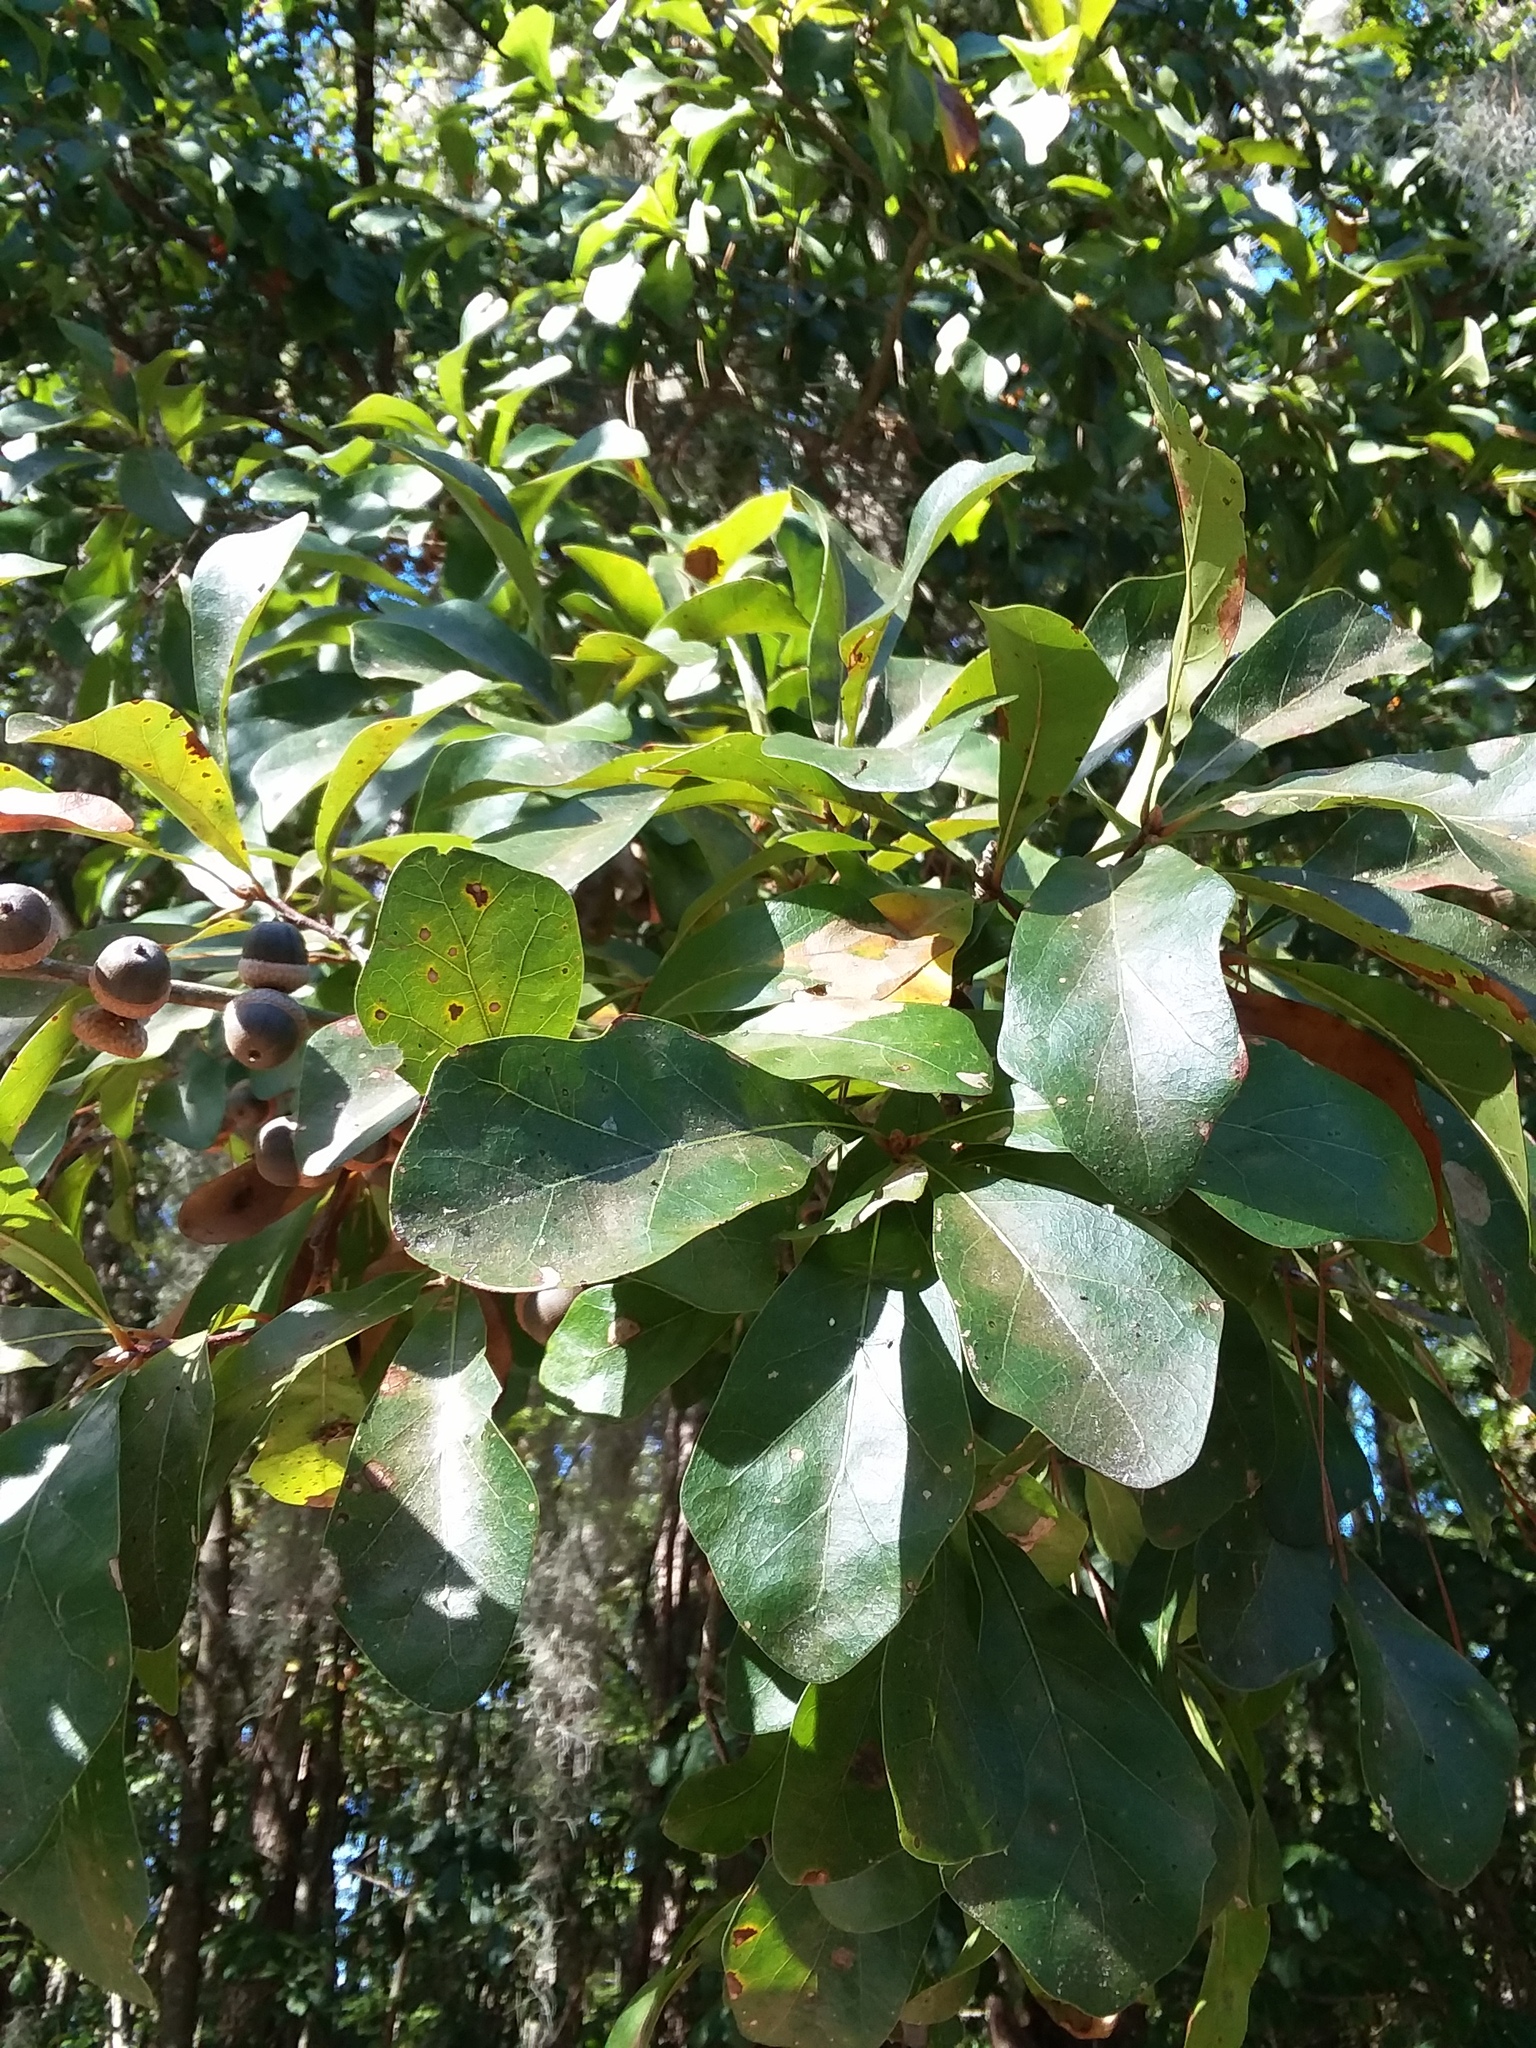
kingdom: Plantae
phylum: Tracheophyta
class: Magnoliopsida
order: Fagales
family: Fagaceae
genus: Quercus
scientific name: Quercus nigra
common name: Water oak
